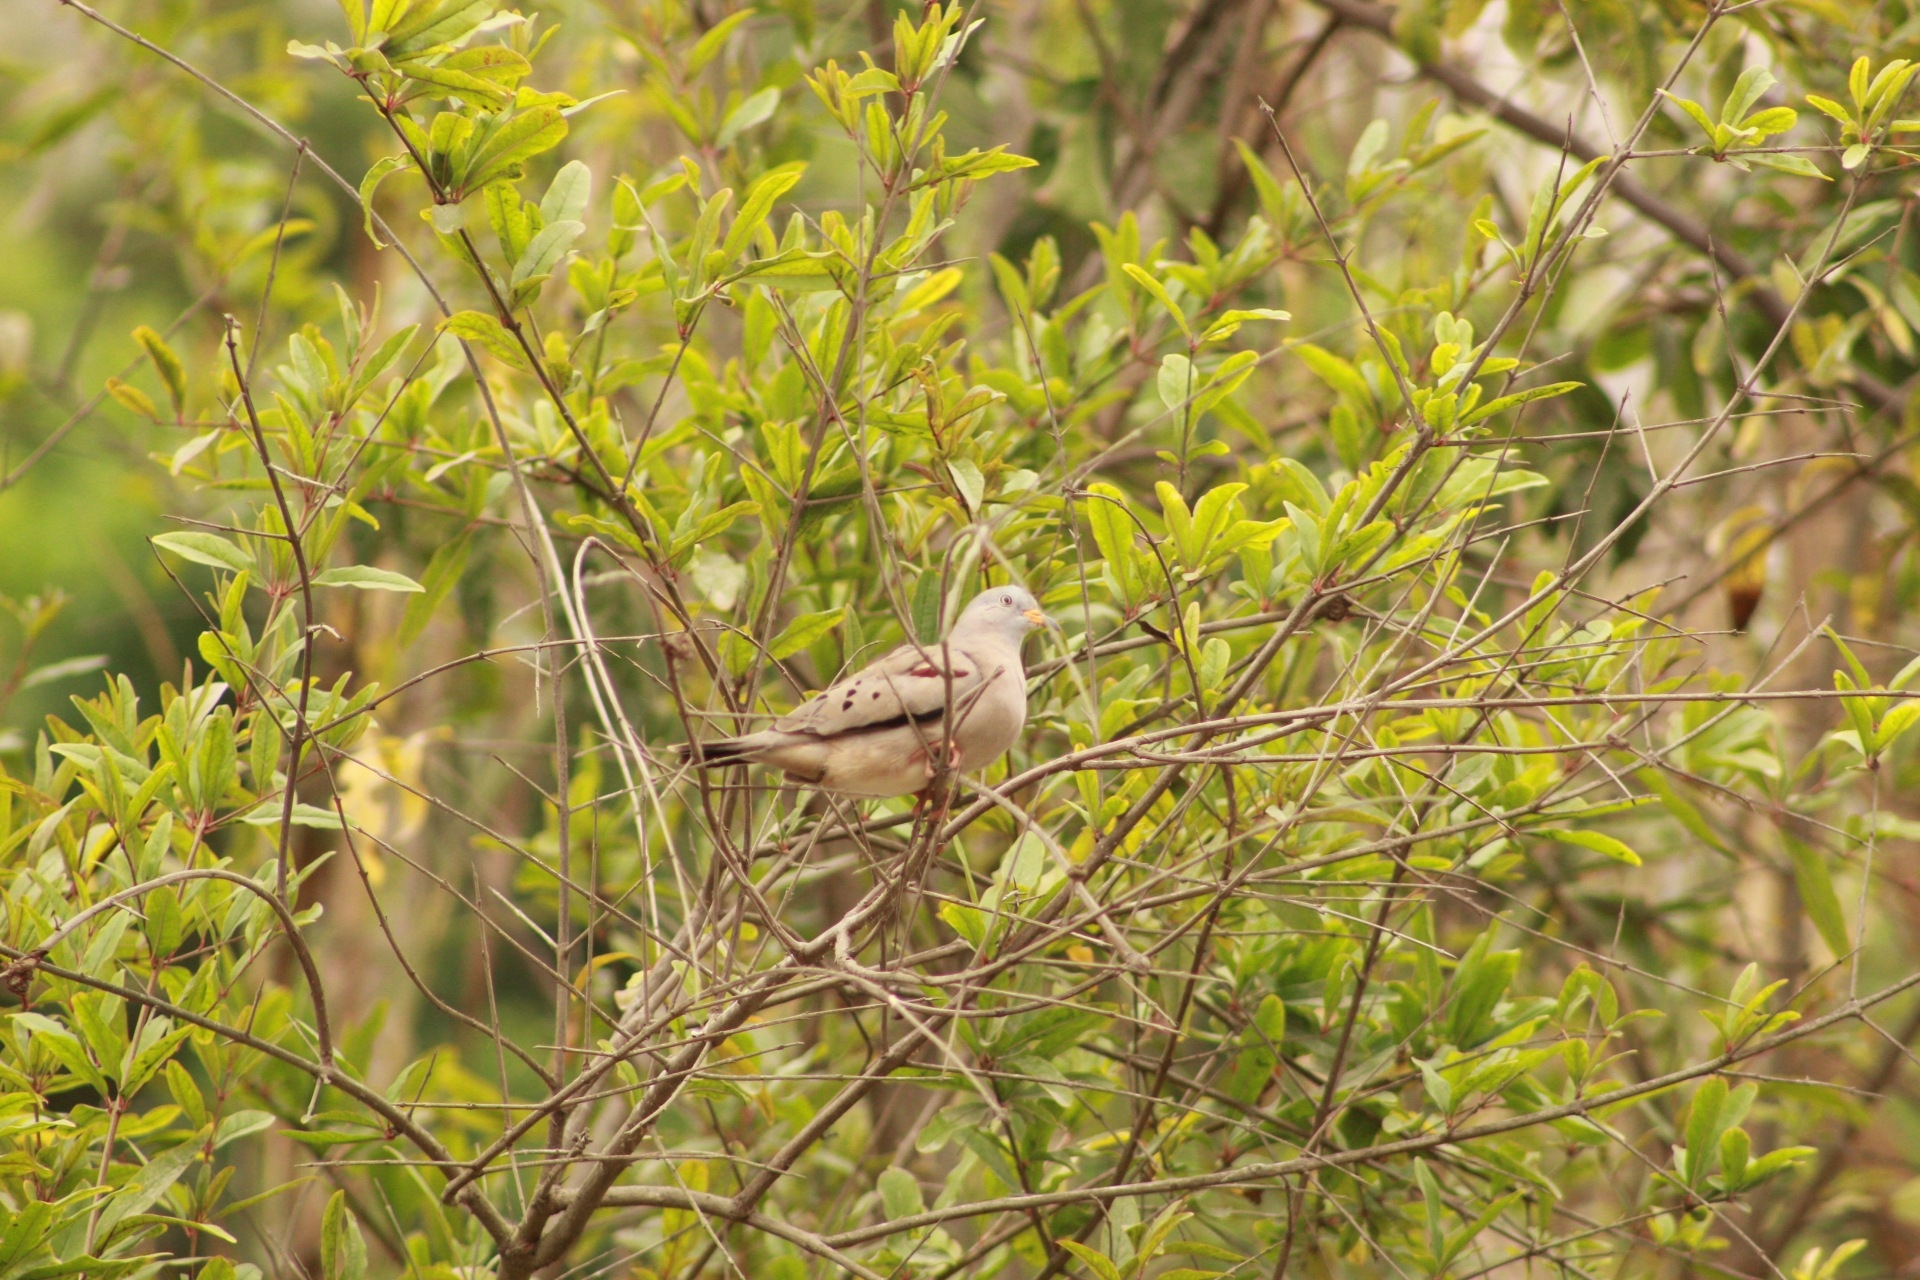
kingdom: Animalia
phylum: Chordata
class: Aves
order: Columbiformes
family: Columbidae
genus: Columbina
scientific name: Columbina cruziana
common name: Croaking ground dove
